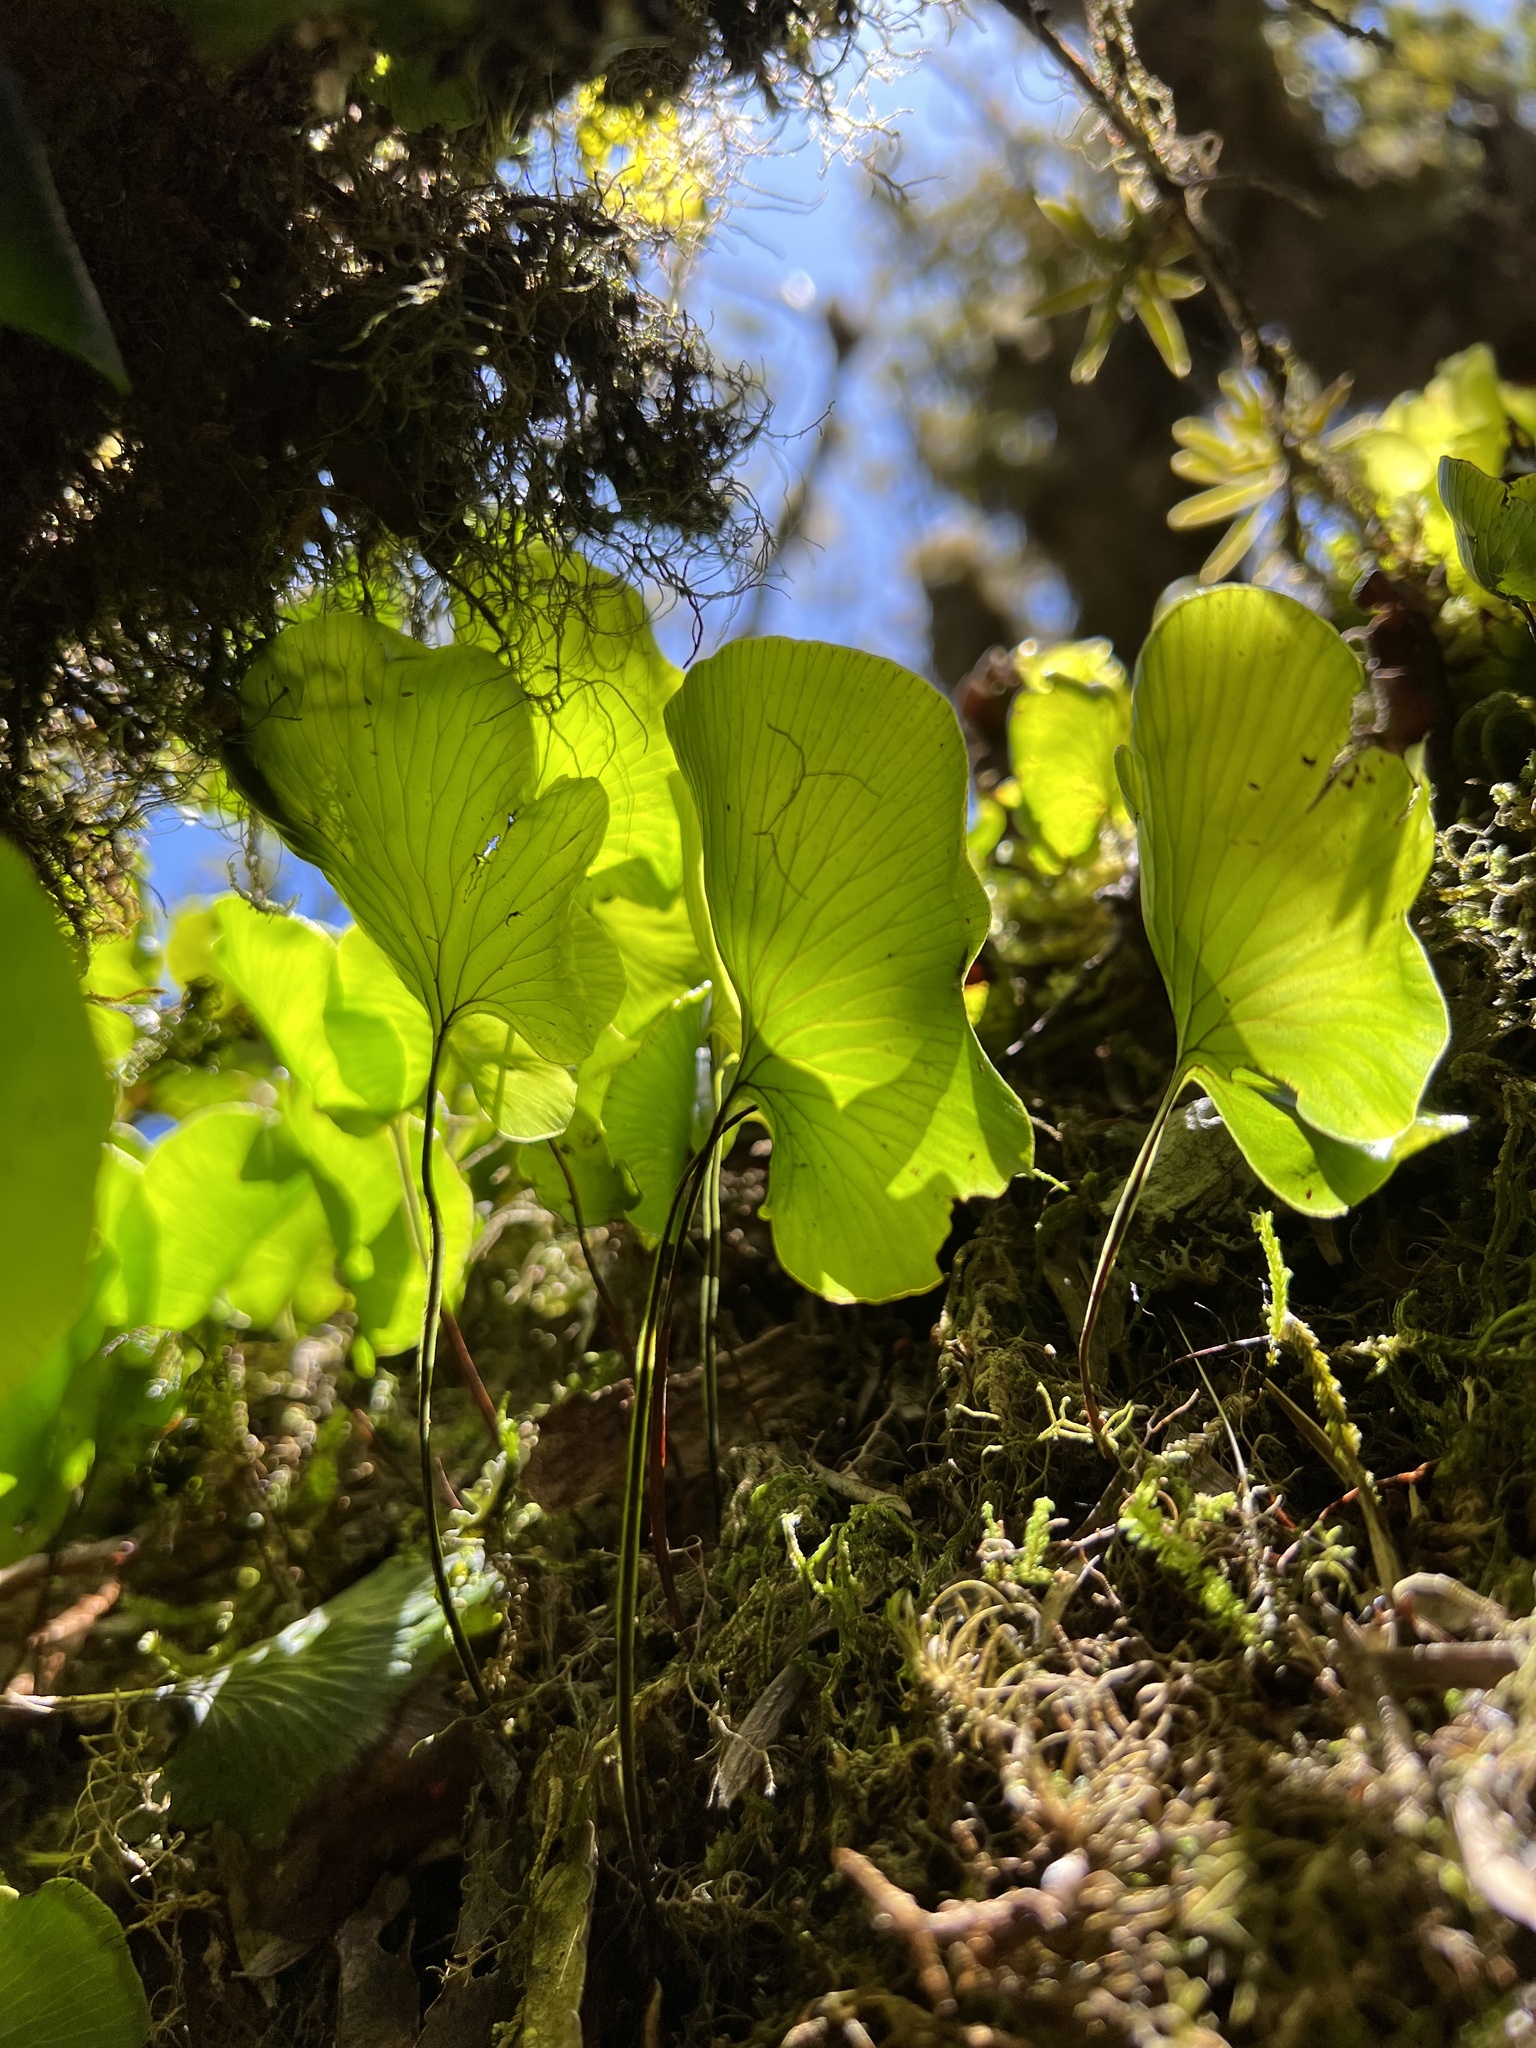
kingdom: Plantae
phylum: Tracheophyta
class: Polypodiopsida
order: Hymenophyllales
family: Hymenophyllaceae
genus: Hymenophyllum
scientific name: Hymenophyllum nephrophyllum
